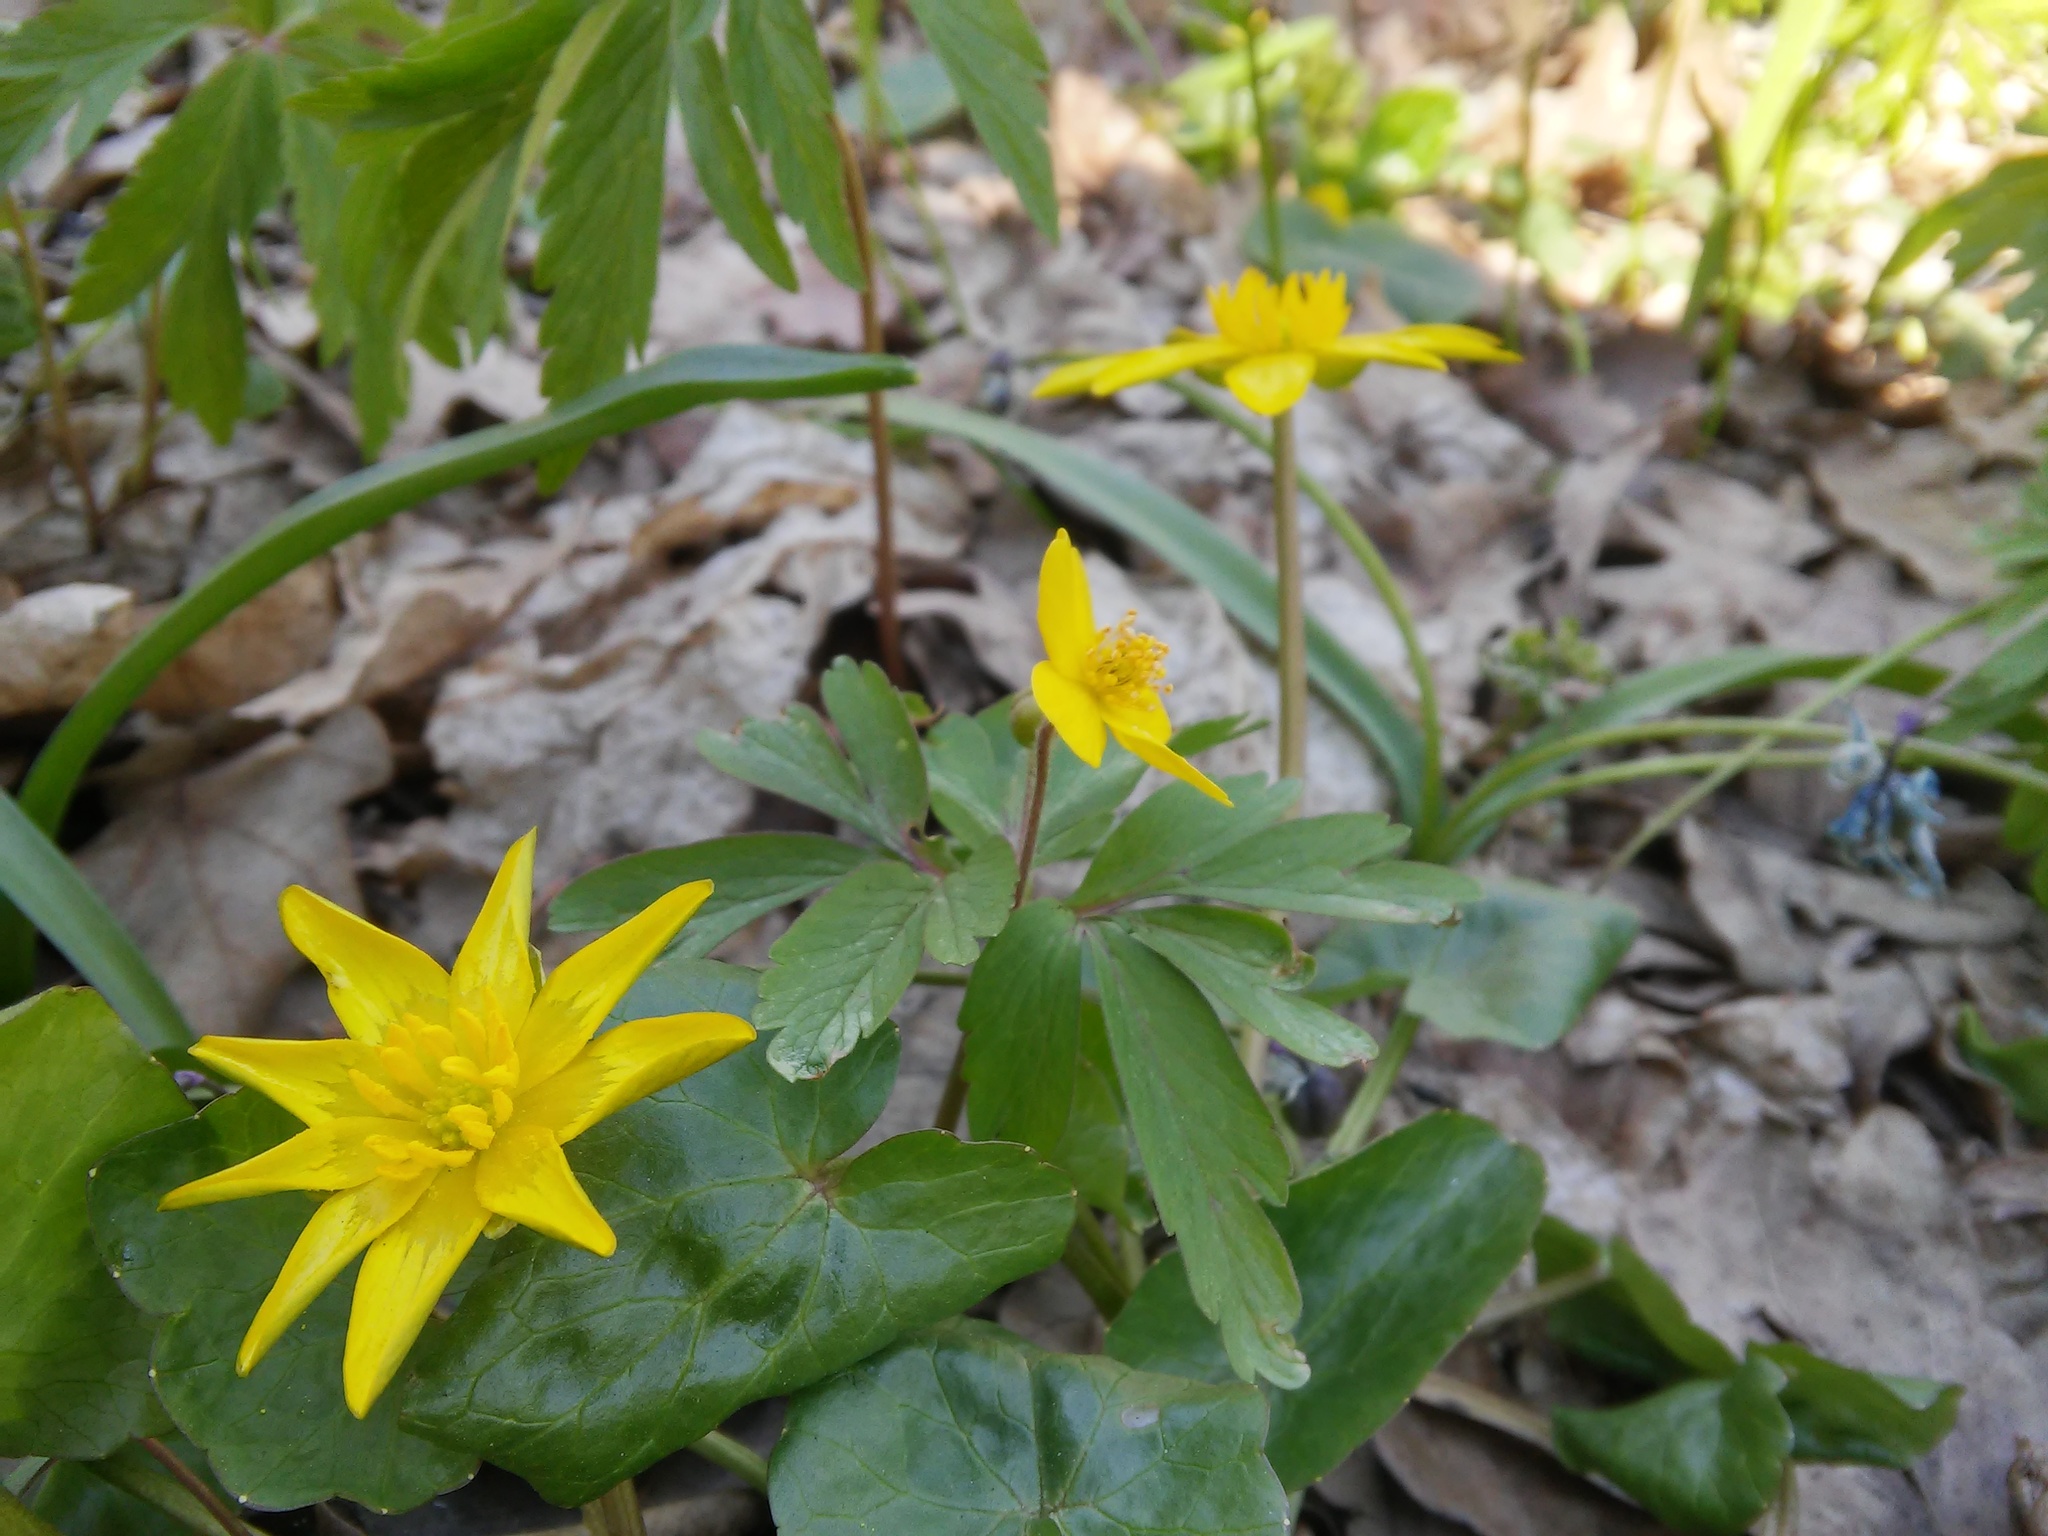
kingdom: Plantae
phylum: Tracheophyta
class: Magnoliopsida
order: Ranunculales
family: Ranunculaceae
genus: Ficaria
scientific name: Ficaria verna
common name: Lesser celandine
